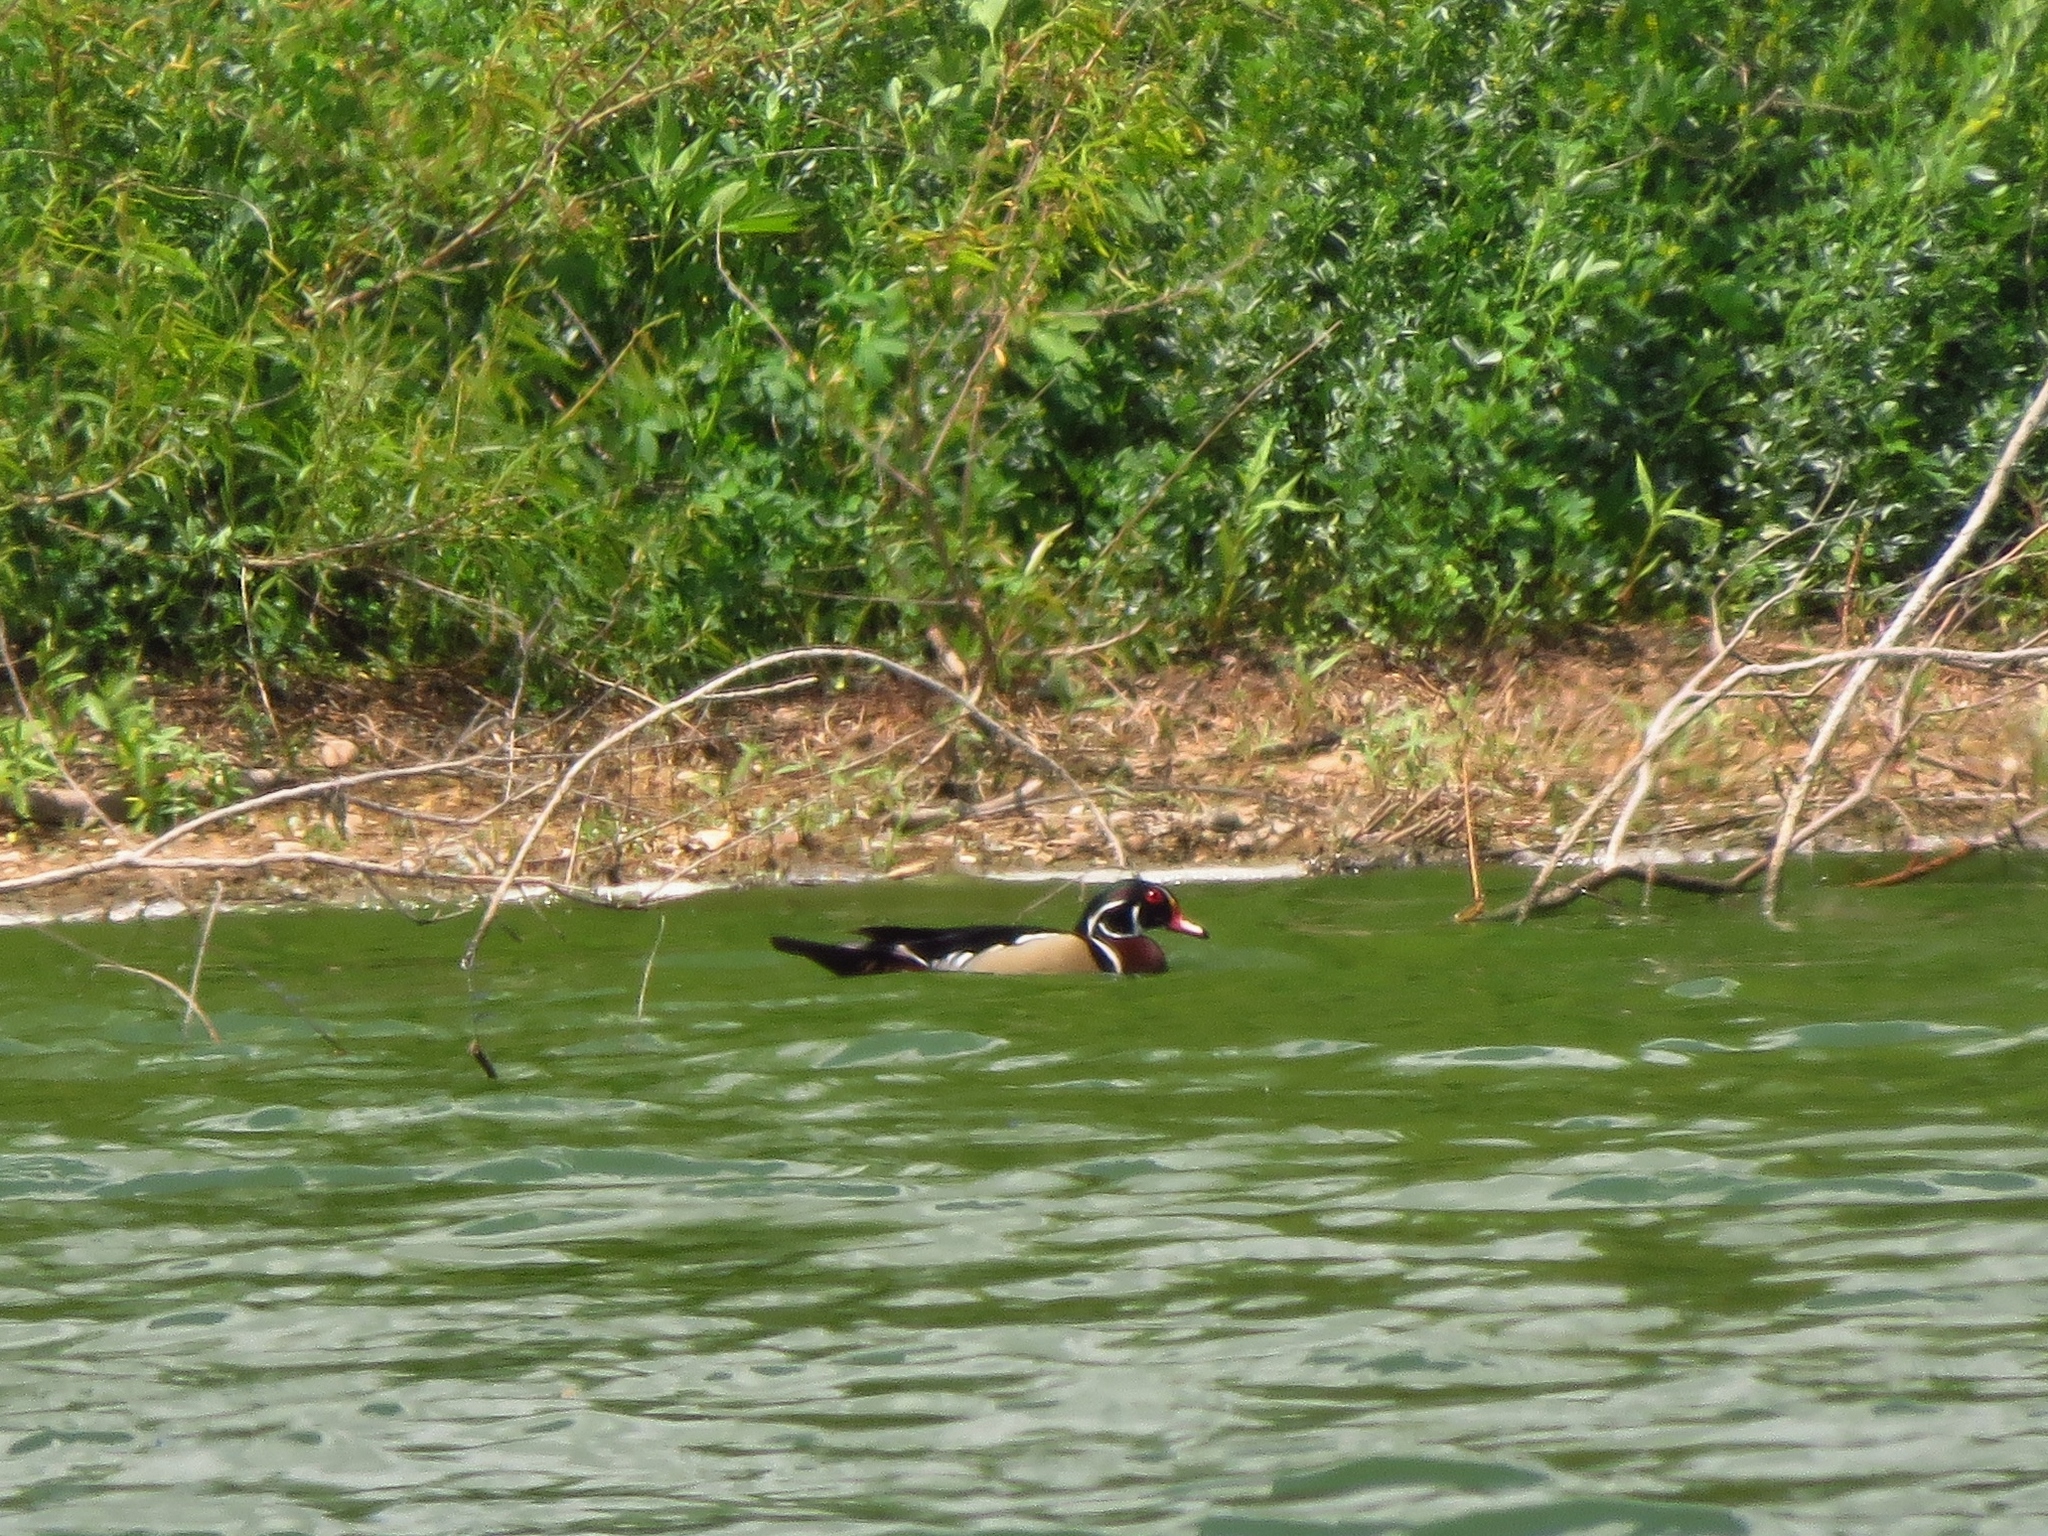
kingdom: Animalia
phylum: Chordata
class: Aves
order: Anseriformes
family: Anatidae
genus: Aix
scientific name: Aix sponsa
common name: Wood duck
